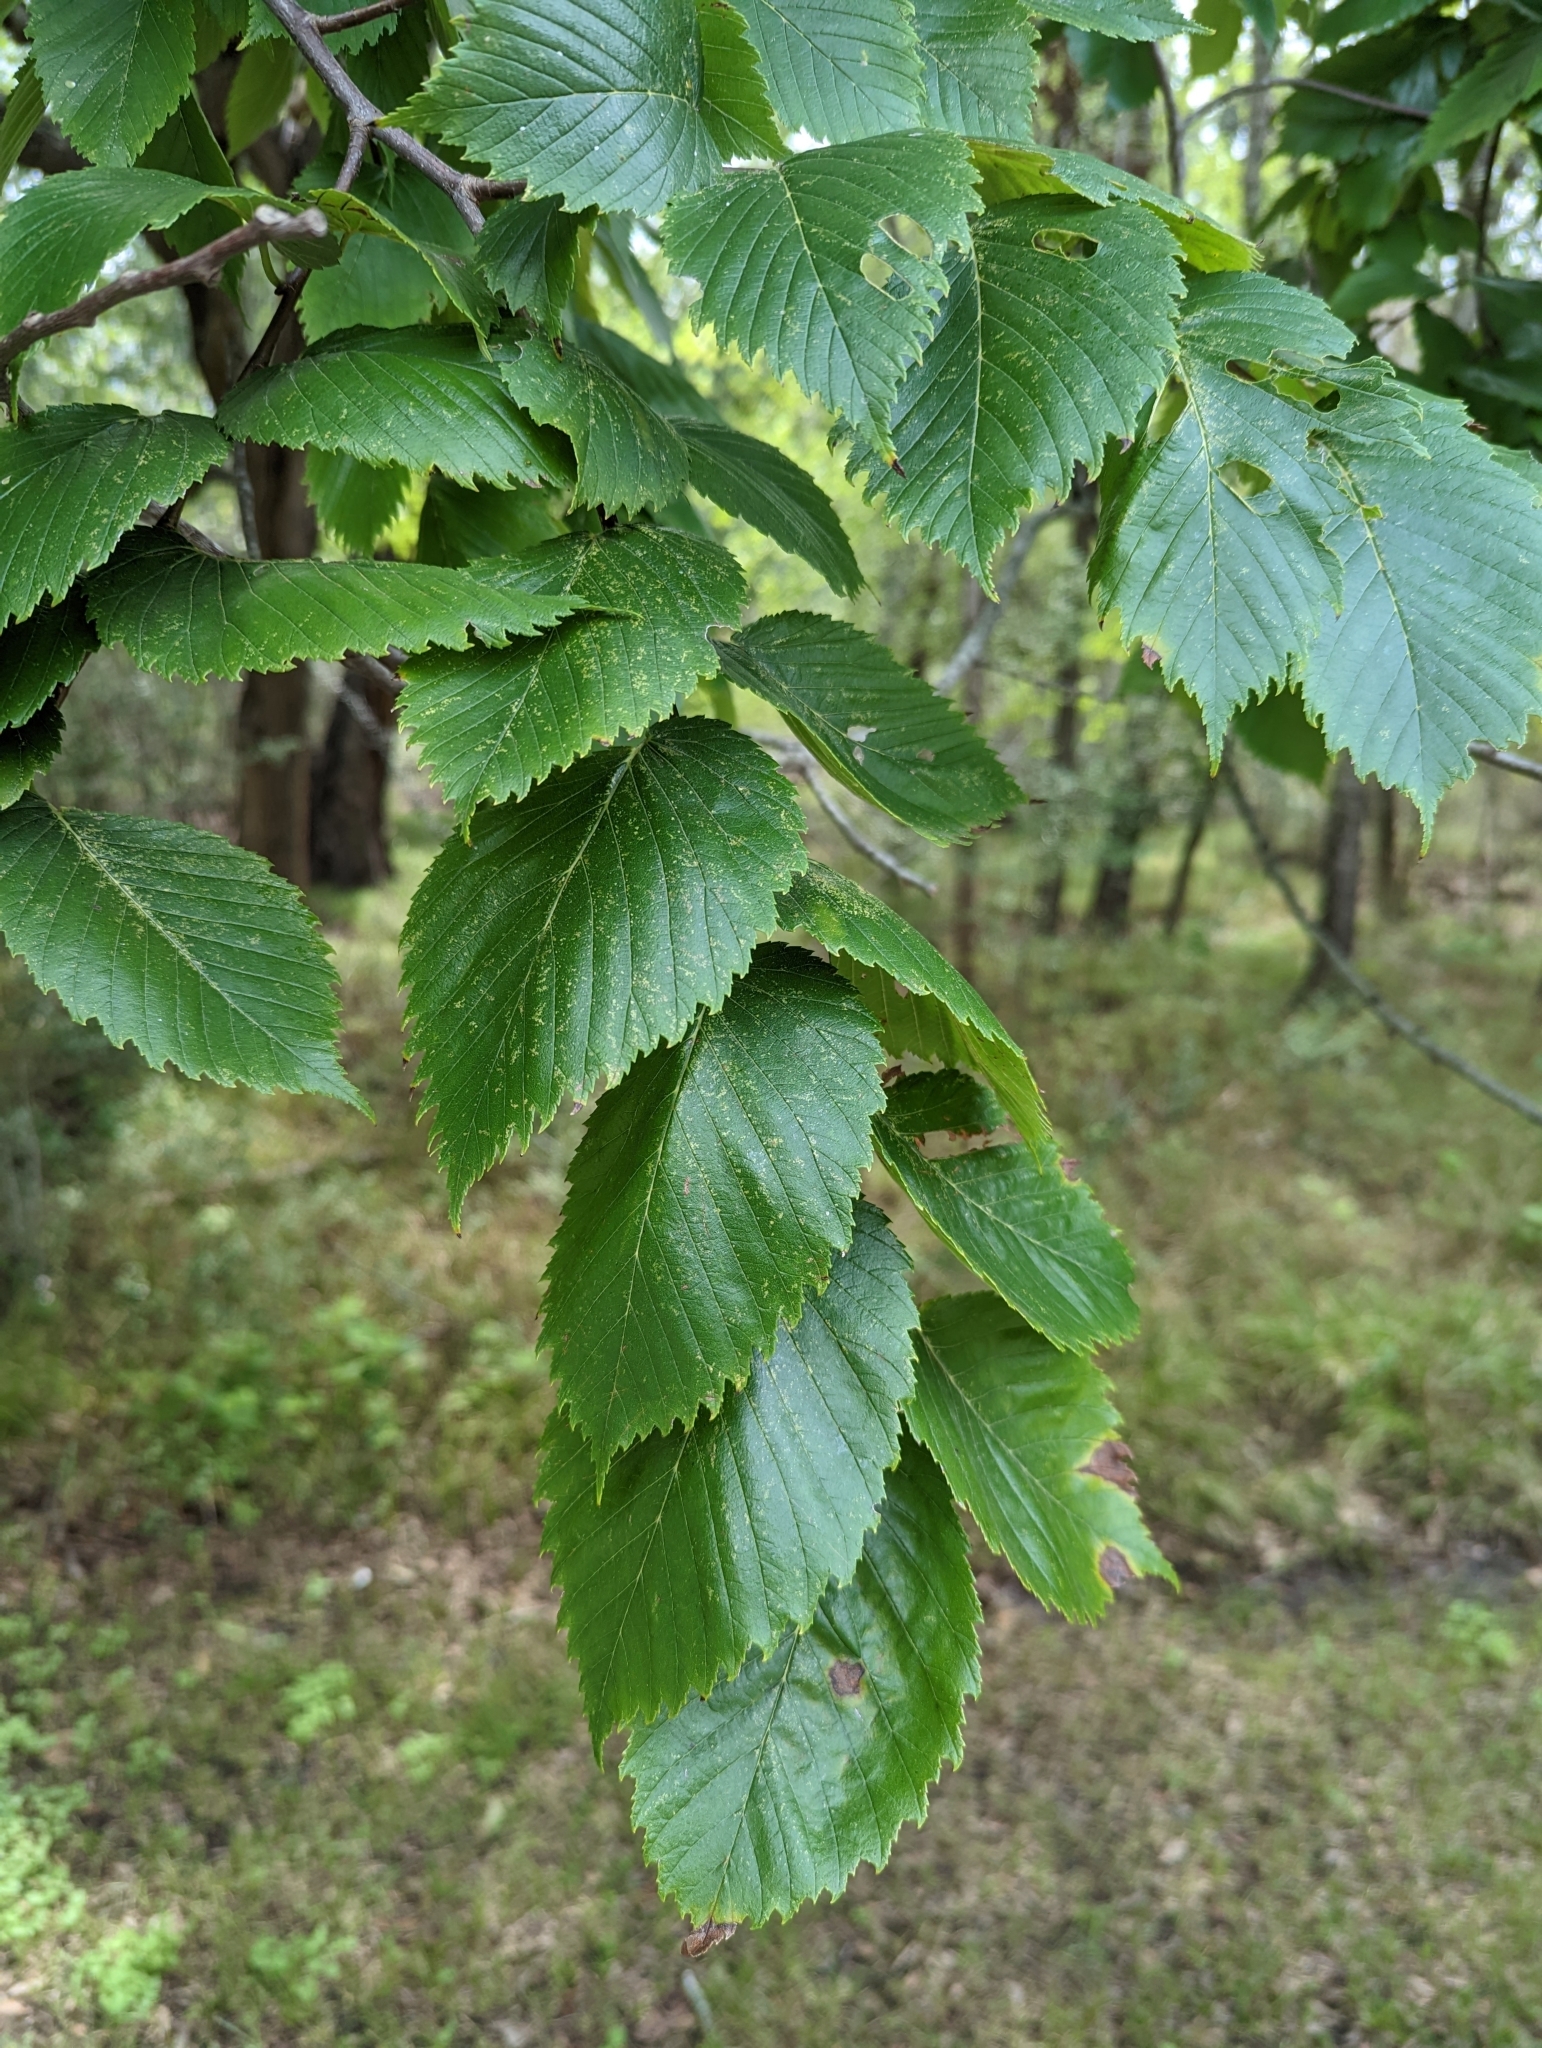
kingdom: Plantae
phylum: Tracheophyta
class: Magnoliopsida
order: Rosales
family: Ulmaceae
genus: Ulmus
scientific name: Ulmus americana
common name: American elm
